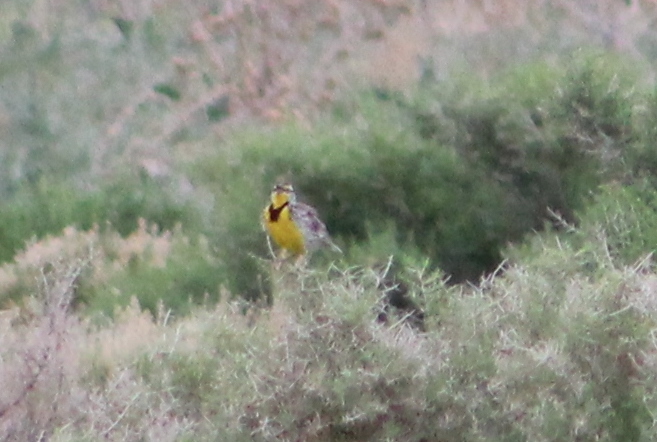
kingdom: Animalia
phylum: Chordata
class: Aves
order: Passeriformes
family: Icteridae
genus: Sturnella
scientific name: Sturnella neglecta
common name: Western meadowlark
